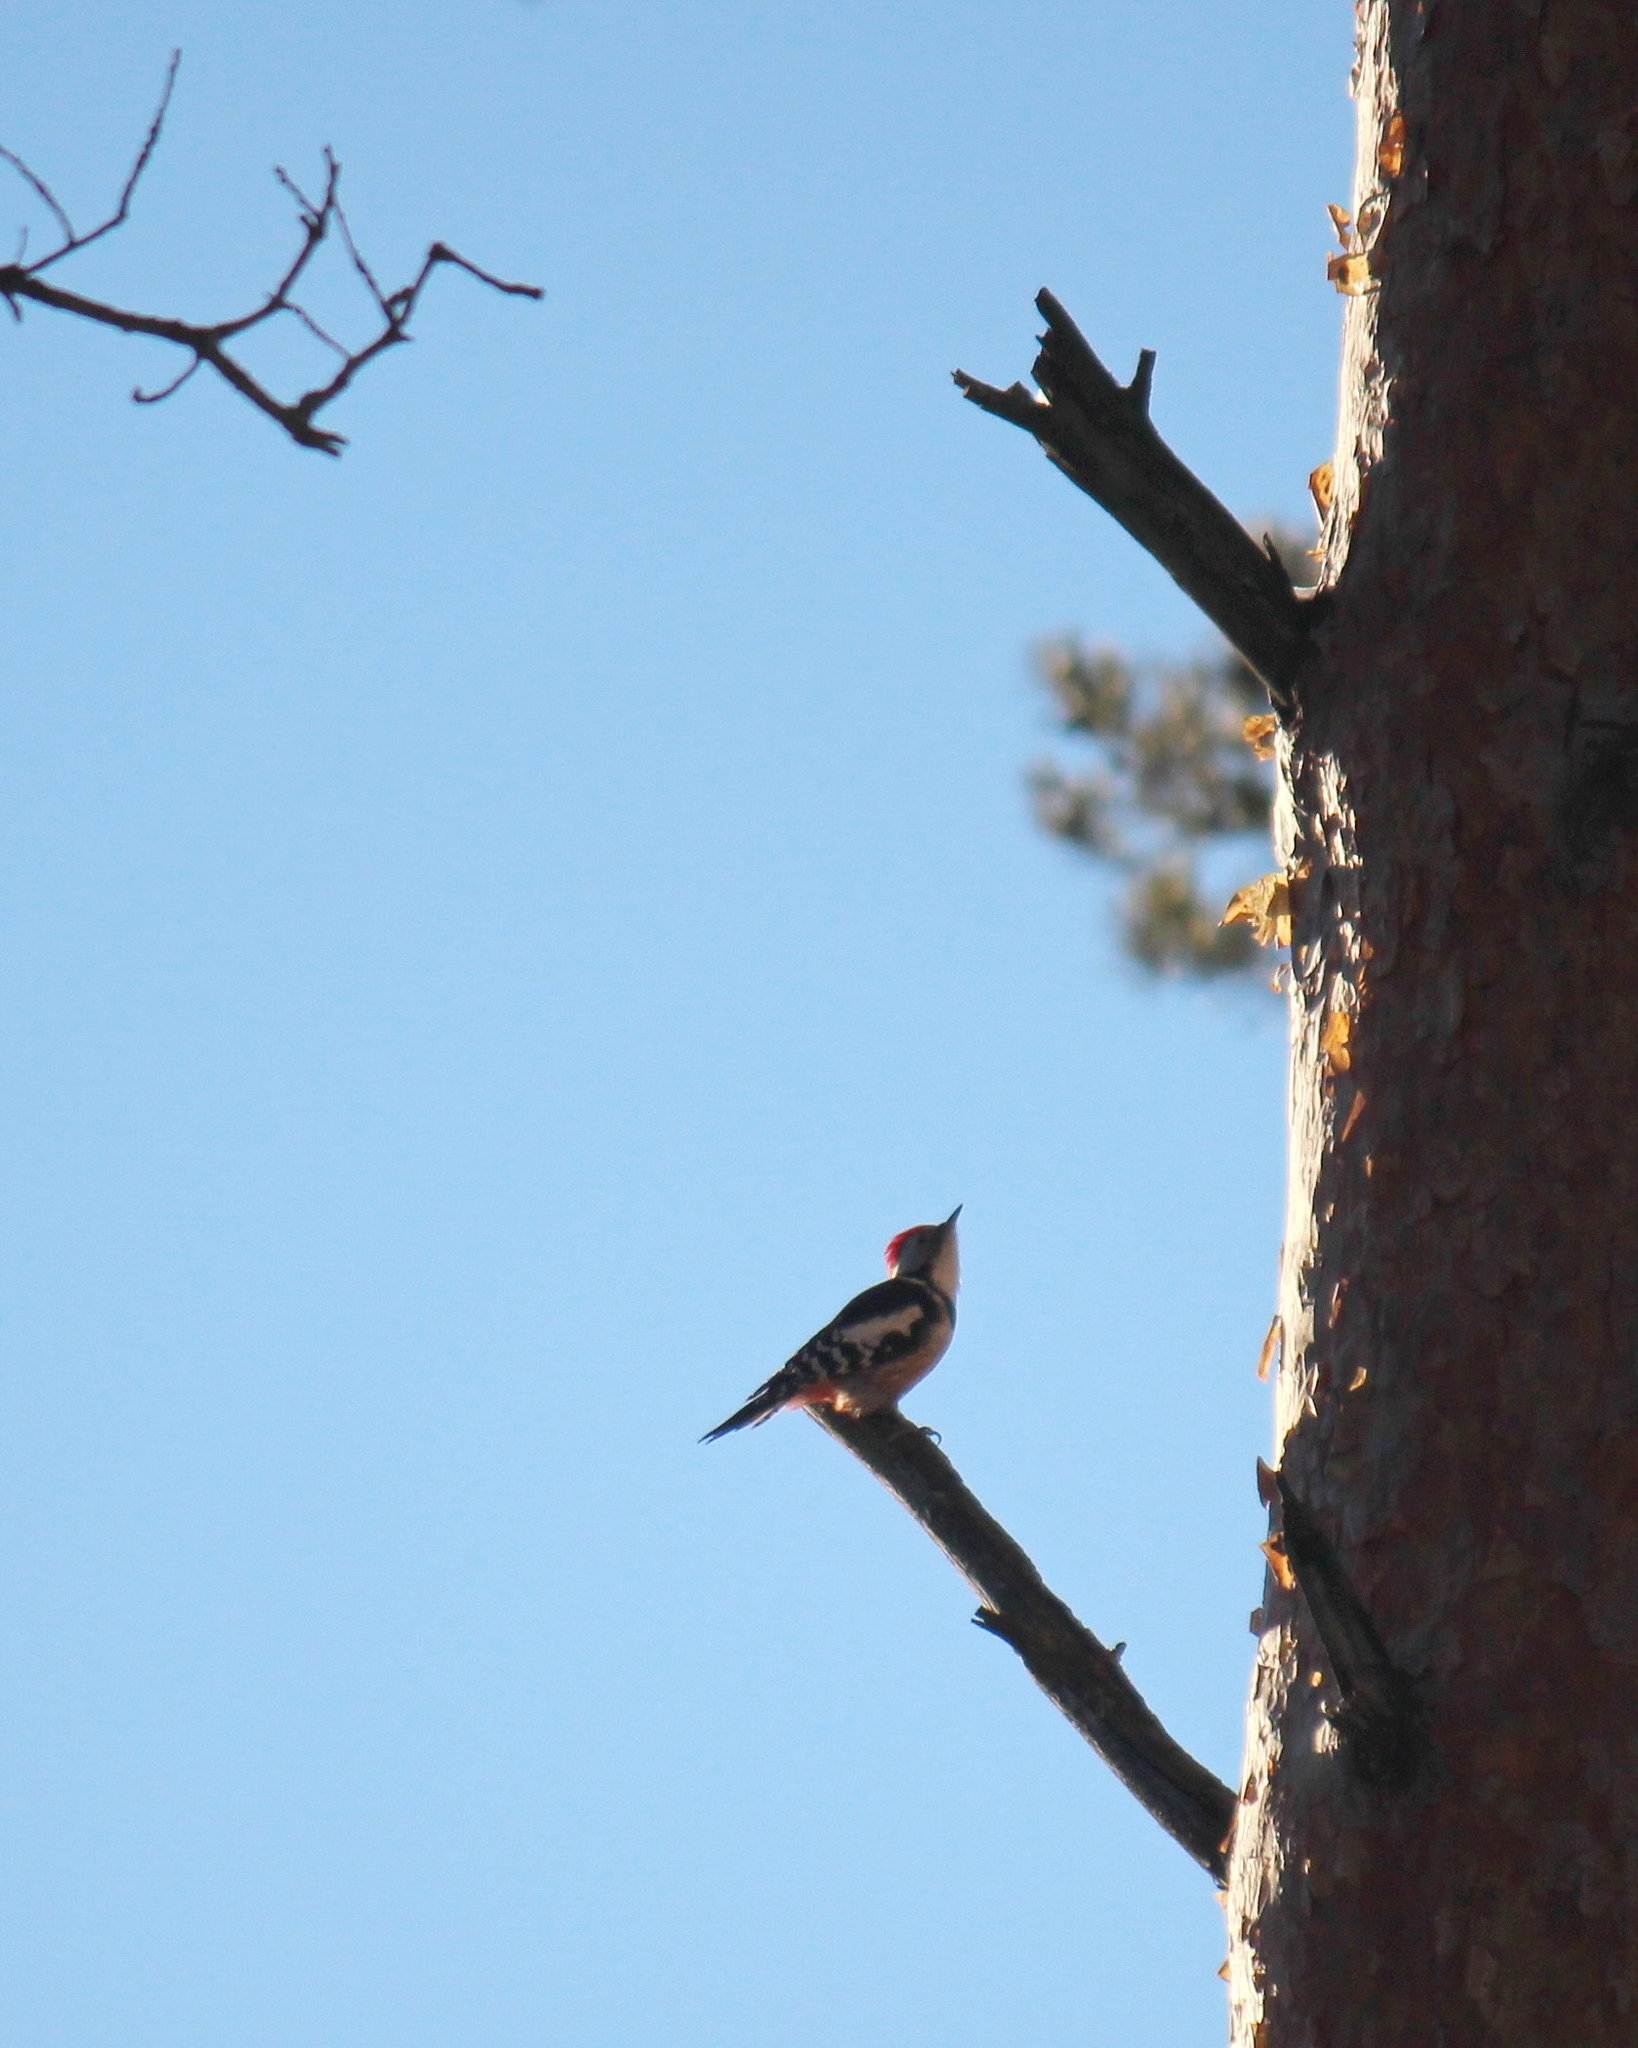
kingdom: Animalia
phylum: Chordata
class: Aves
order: Piciformes
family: Picidae
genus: Dendrocoptes
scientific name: Dendrocoptes medius
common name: Middle spotted woodpecker
